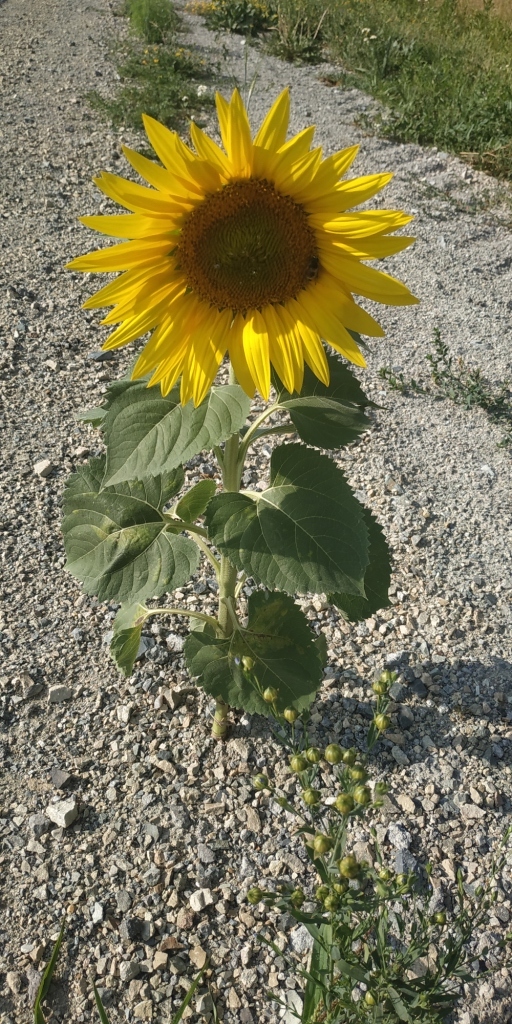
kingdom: Plantae
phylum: Tracheophyta
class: Magnoliopsida
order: Asterales
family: Asteraceae
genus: Helianthus
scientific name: Helianthus annuus
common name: Sunflower
